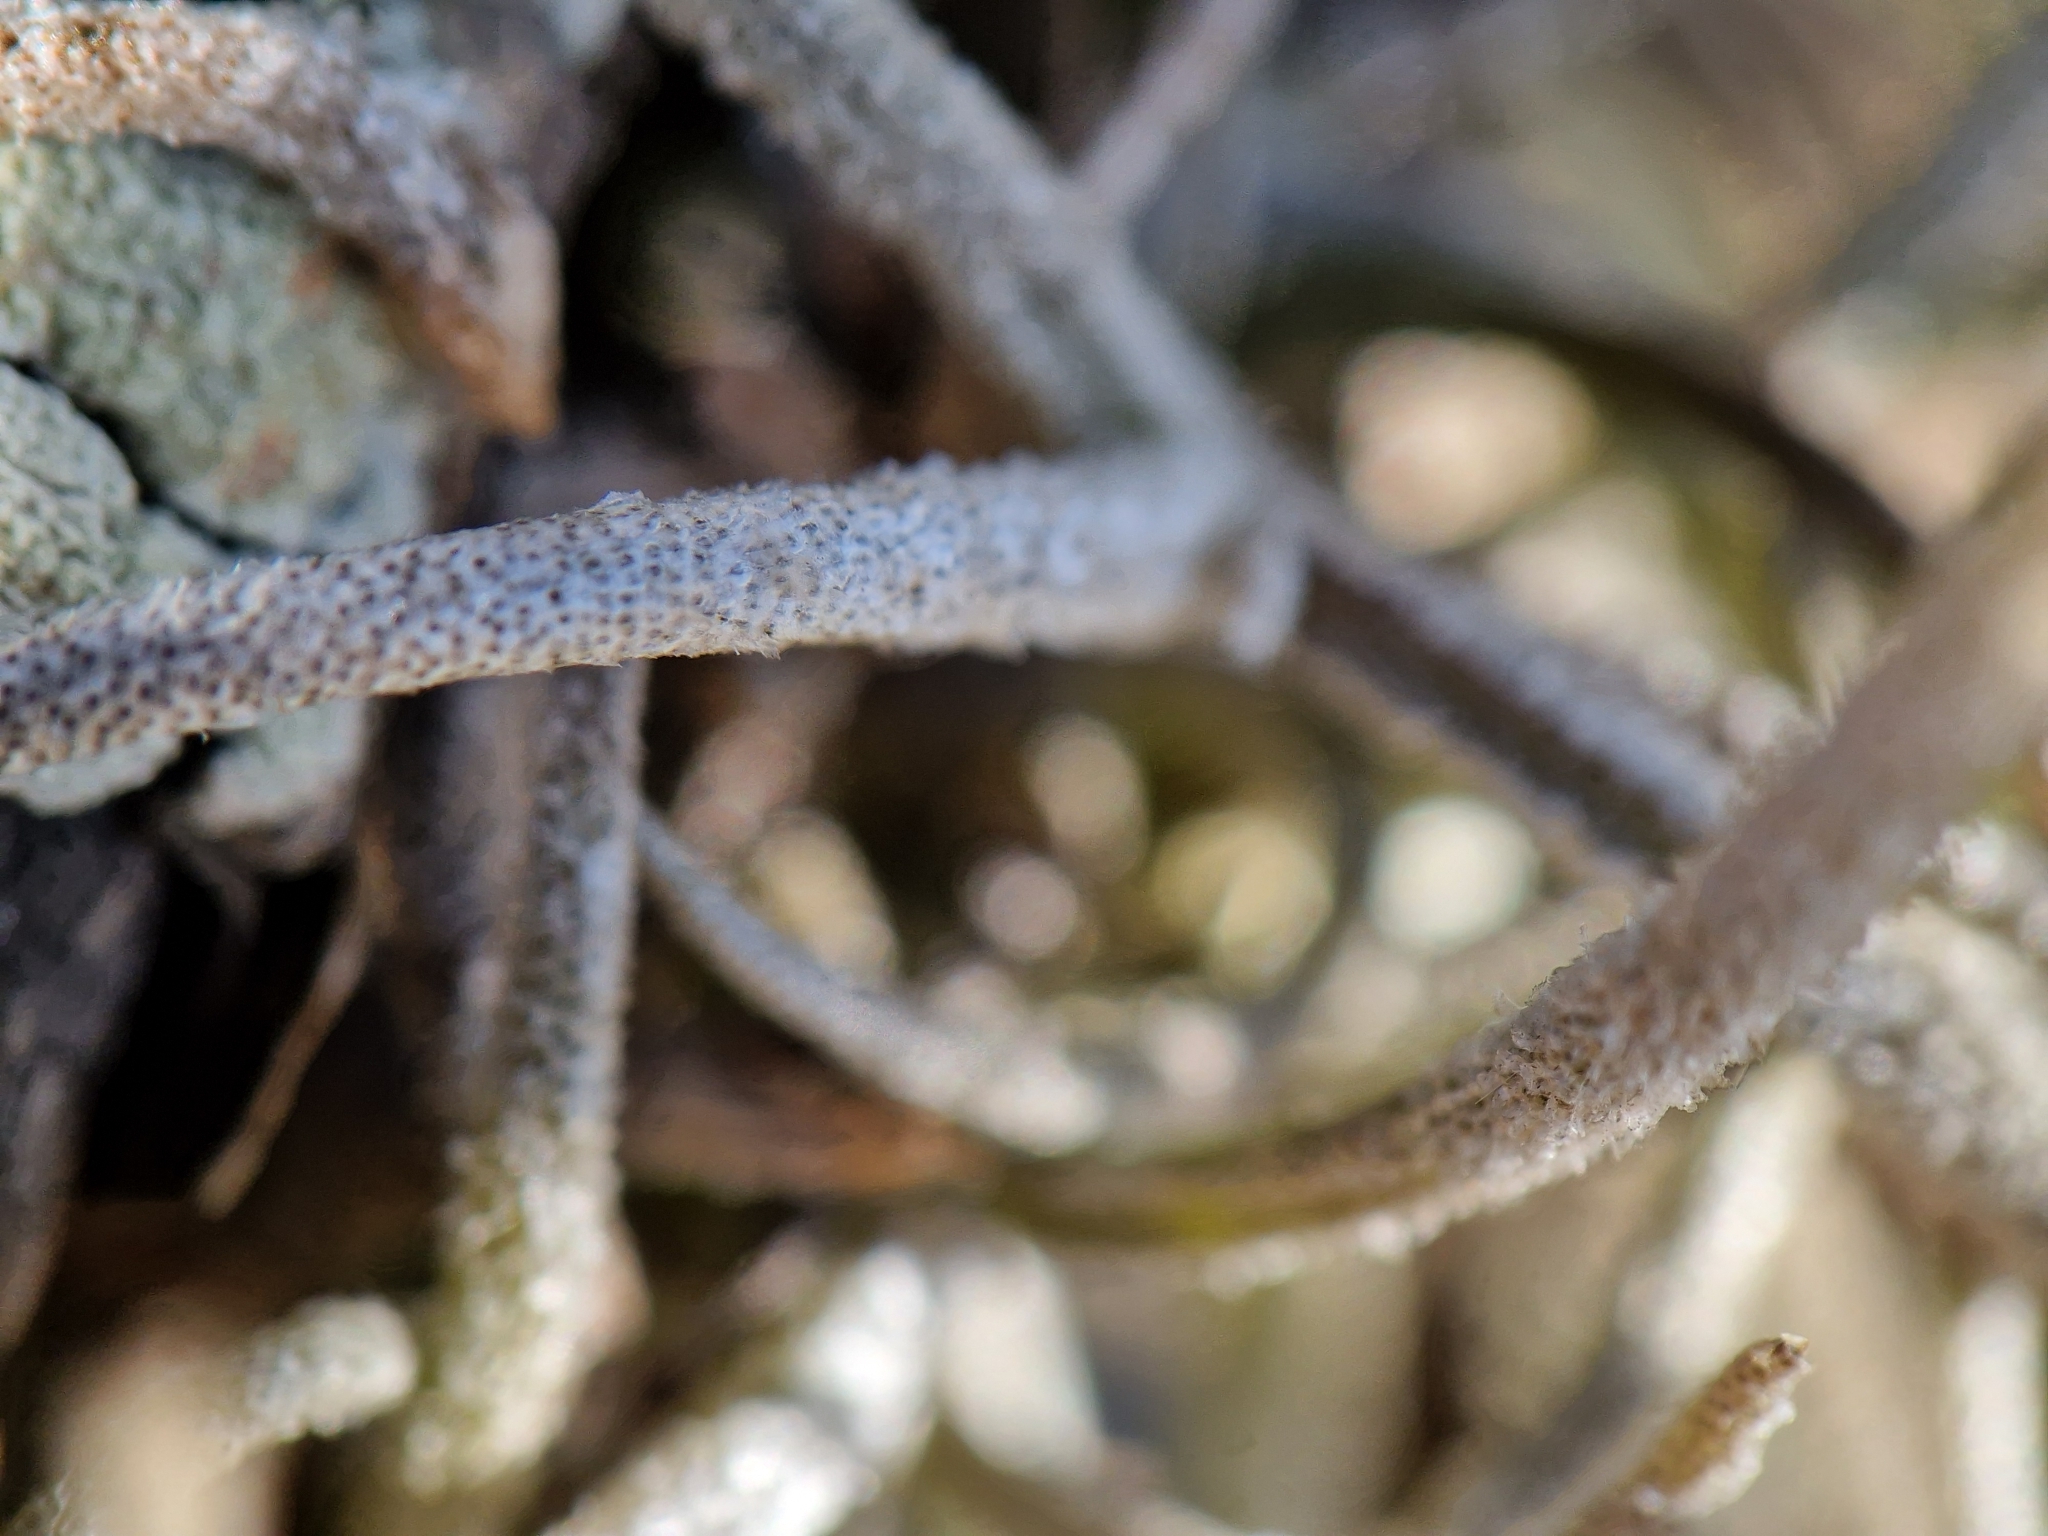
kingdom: Plantae
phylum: Tracheophyta
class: Liliopsida
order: Poales
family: Bromeliaceae
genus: Tillandsia
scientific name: Tillandsia recurvata
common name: Small ballmoss
